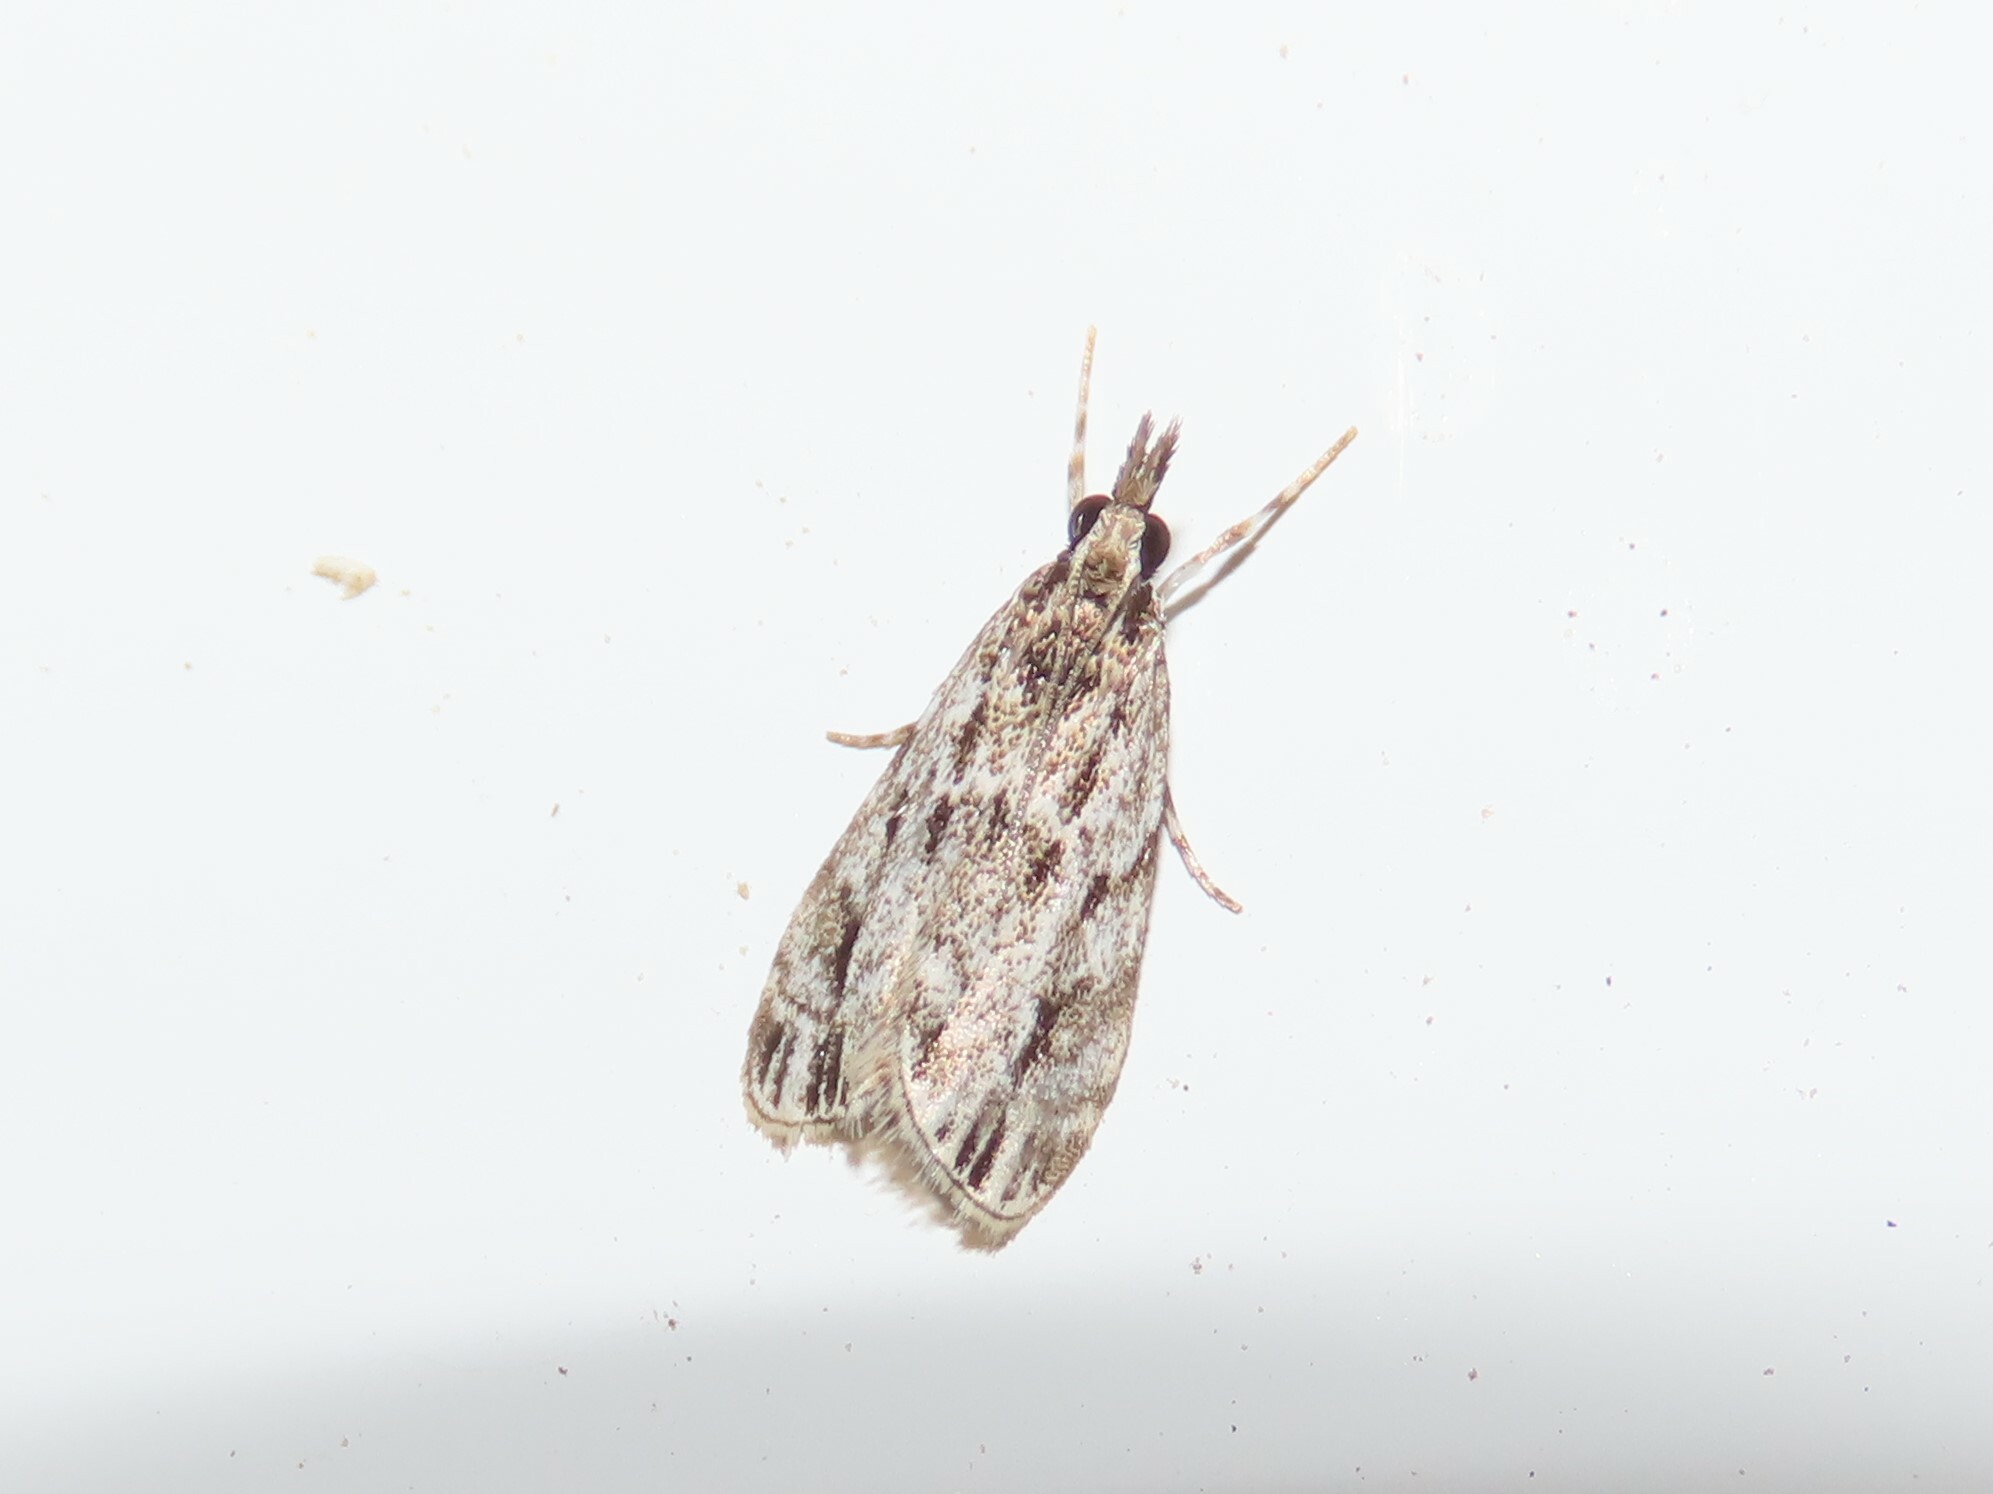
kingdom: Animalia
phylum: Arthropoda
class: Insecta
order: Lepidoptera
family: Crambidae
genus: Eudonia
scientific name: Eudonia strigalis
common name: Striped eudonia moth
